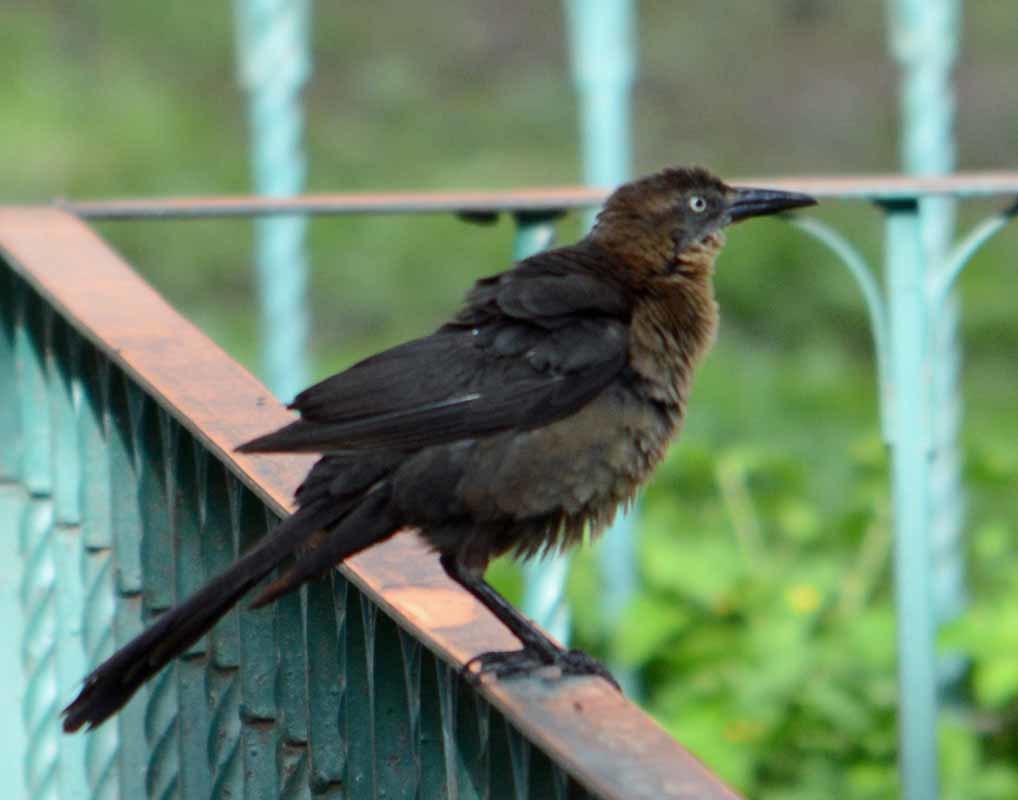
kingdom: Animalia
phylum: Chordata
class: Aves
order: Passeriformes
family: Icteridae
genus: Quiscalus
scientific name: Quiscalus mexicanus
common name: Great-tailed grackle
